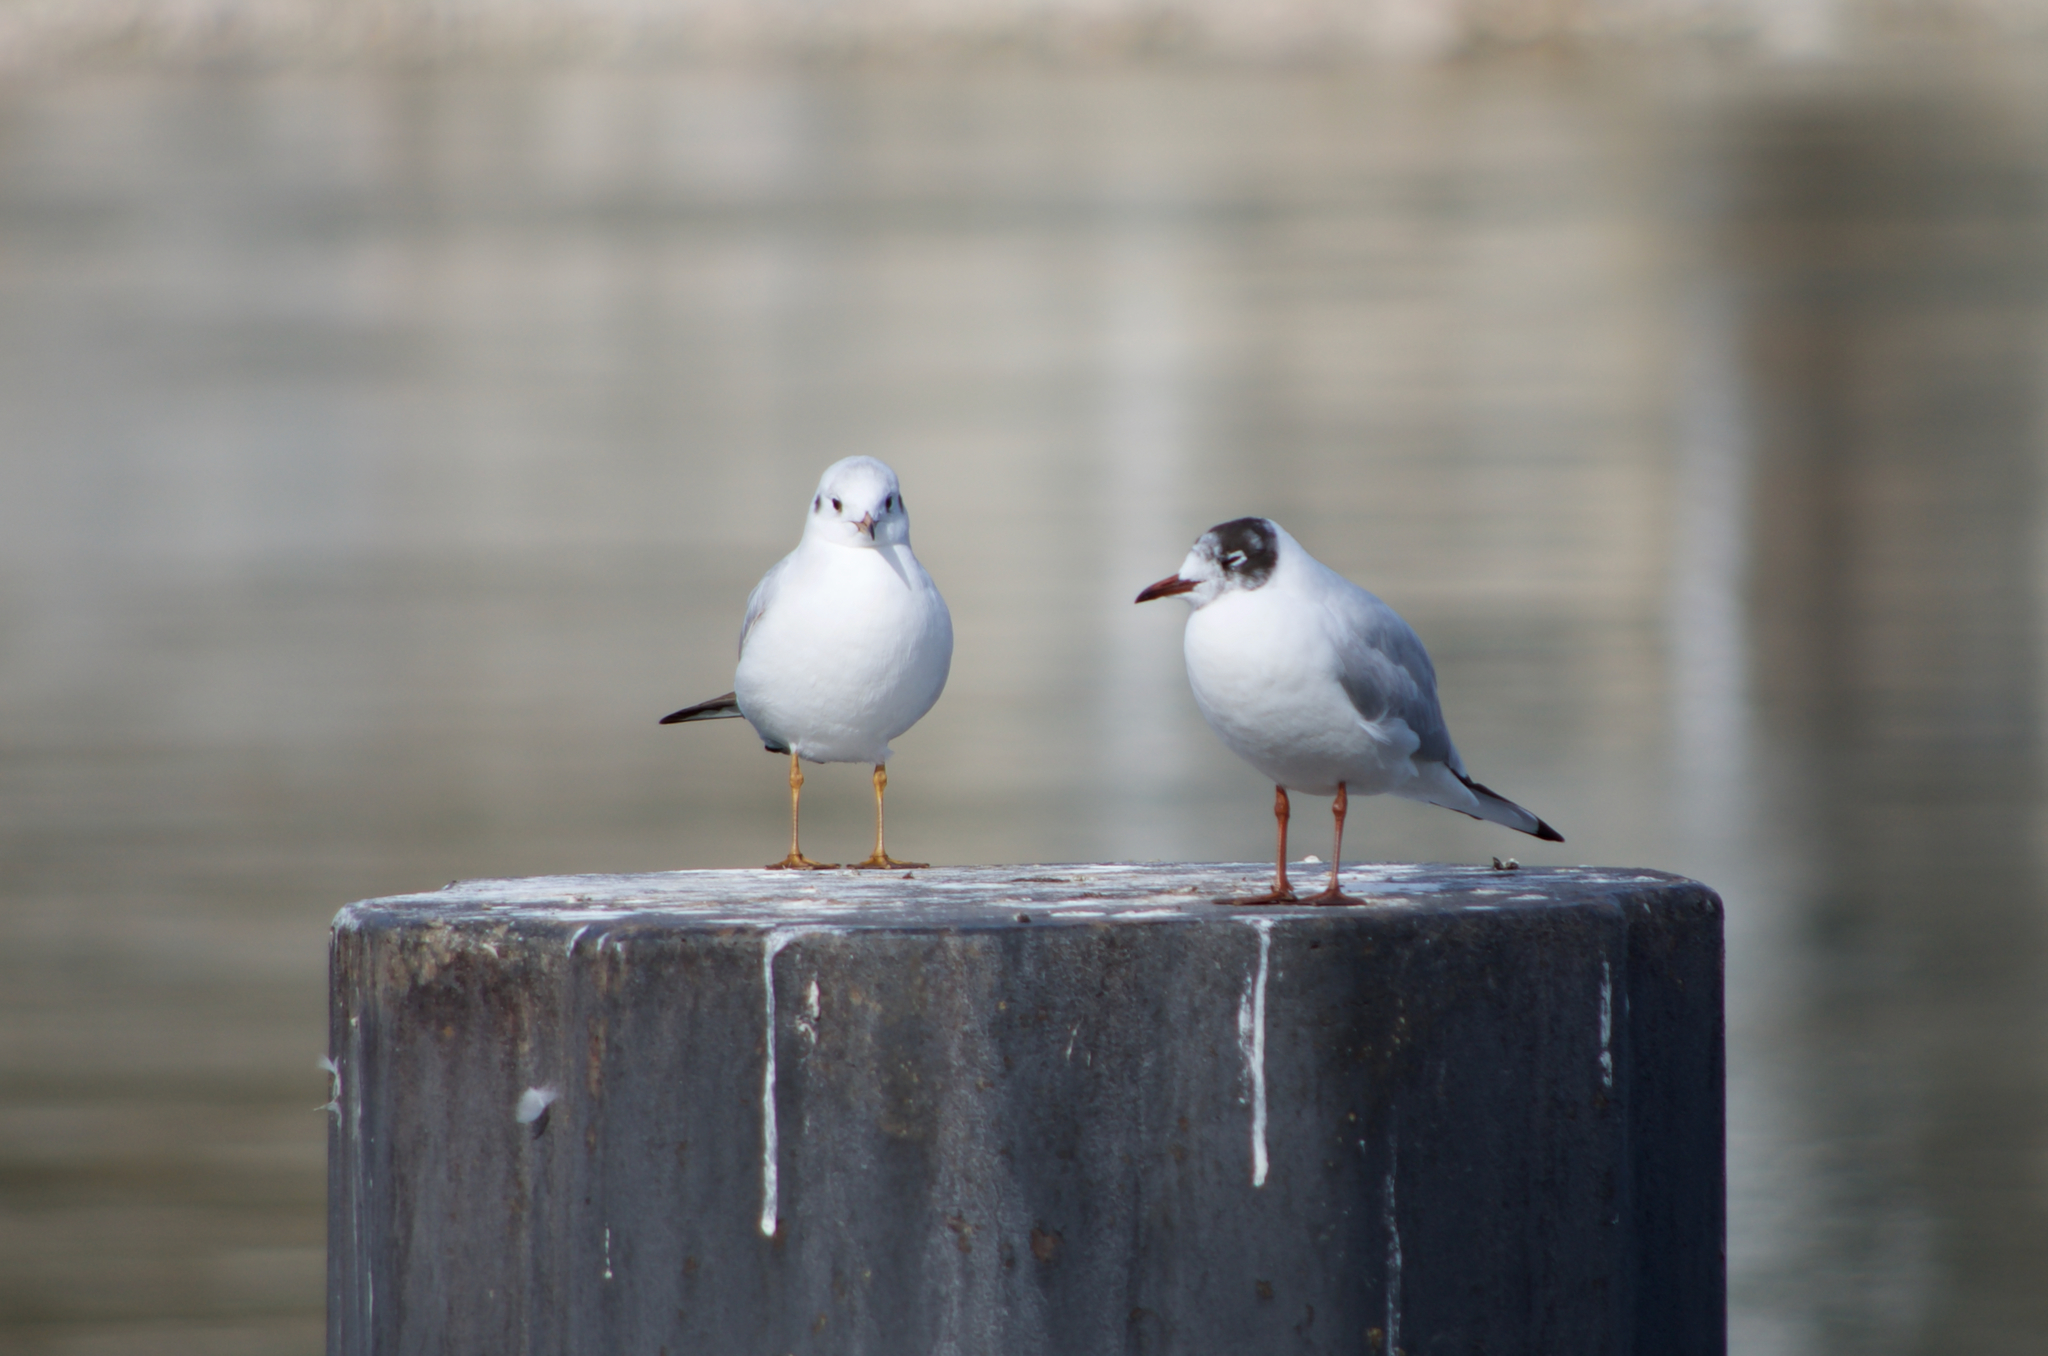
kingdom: Animalia
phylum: Chordata
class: Aves
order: Charadriiformes
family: Laridae
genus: Chroicocephalus
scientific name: Chroicocephalus ridibundus
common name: Black-headed gull
